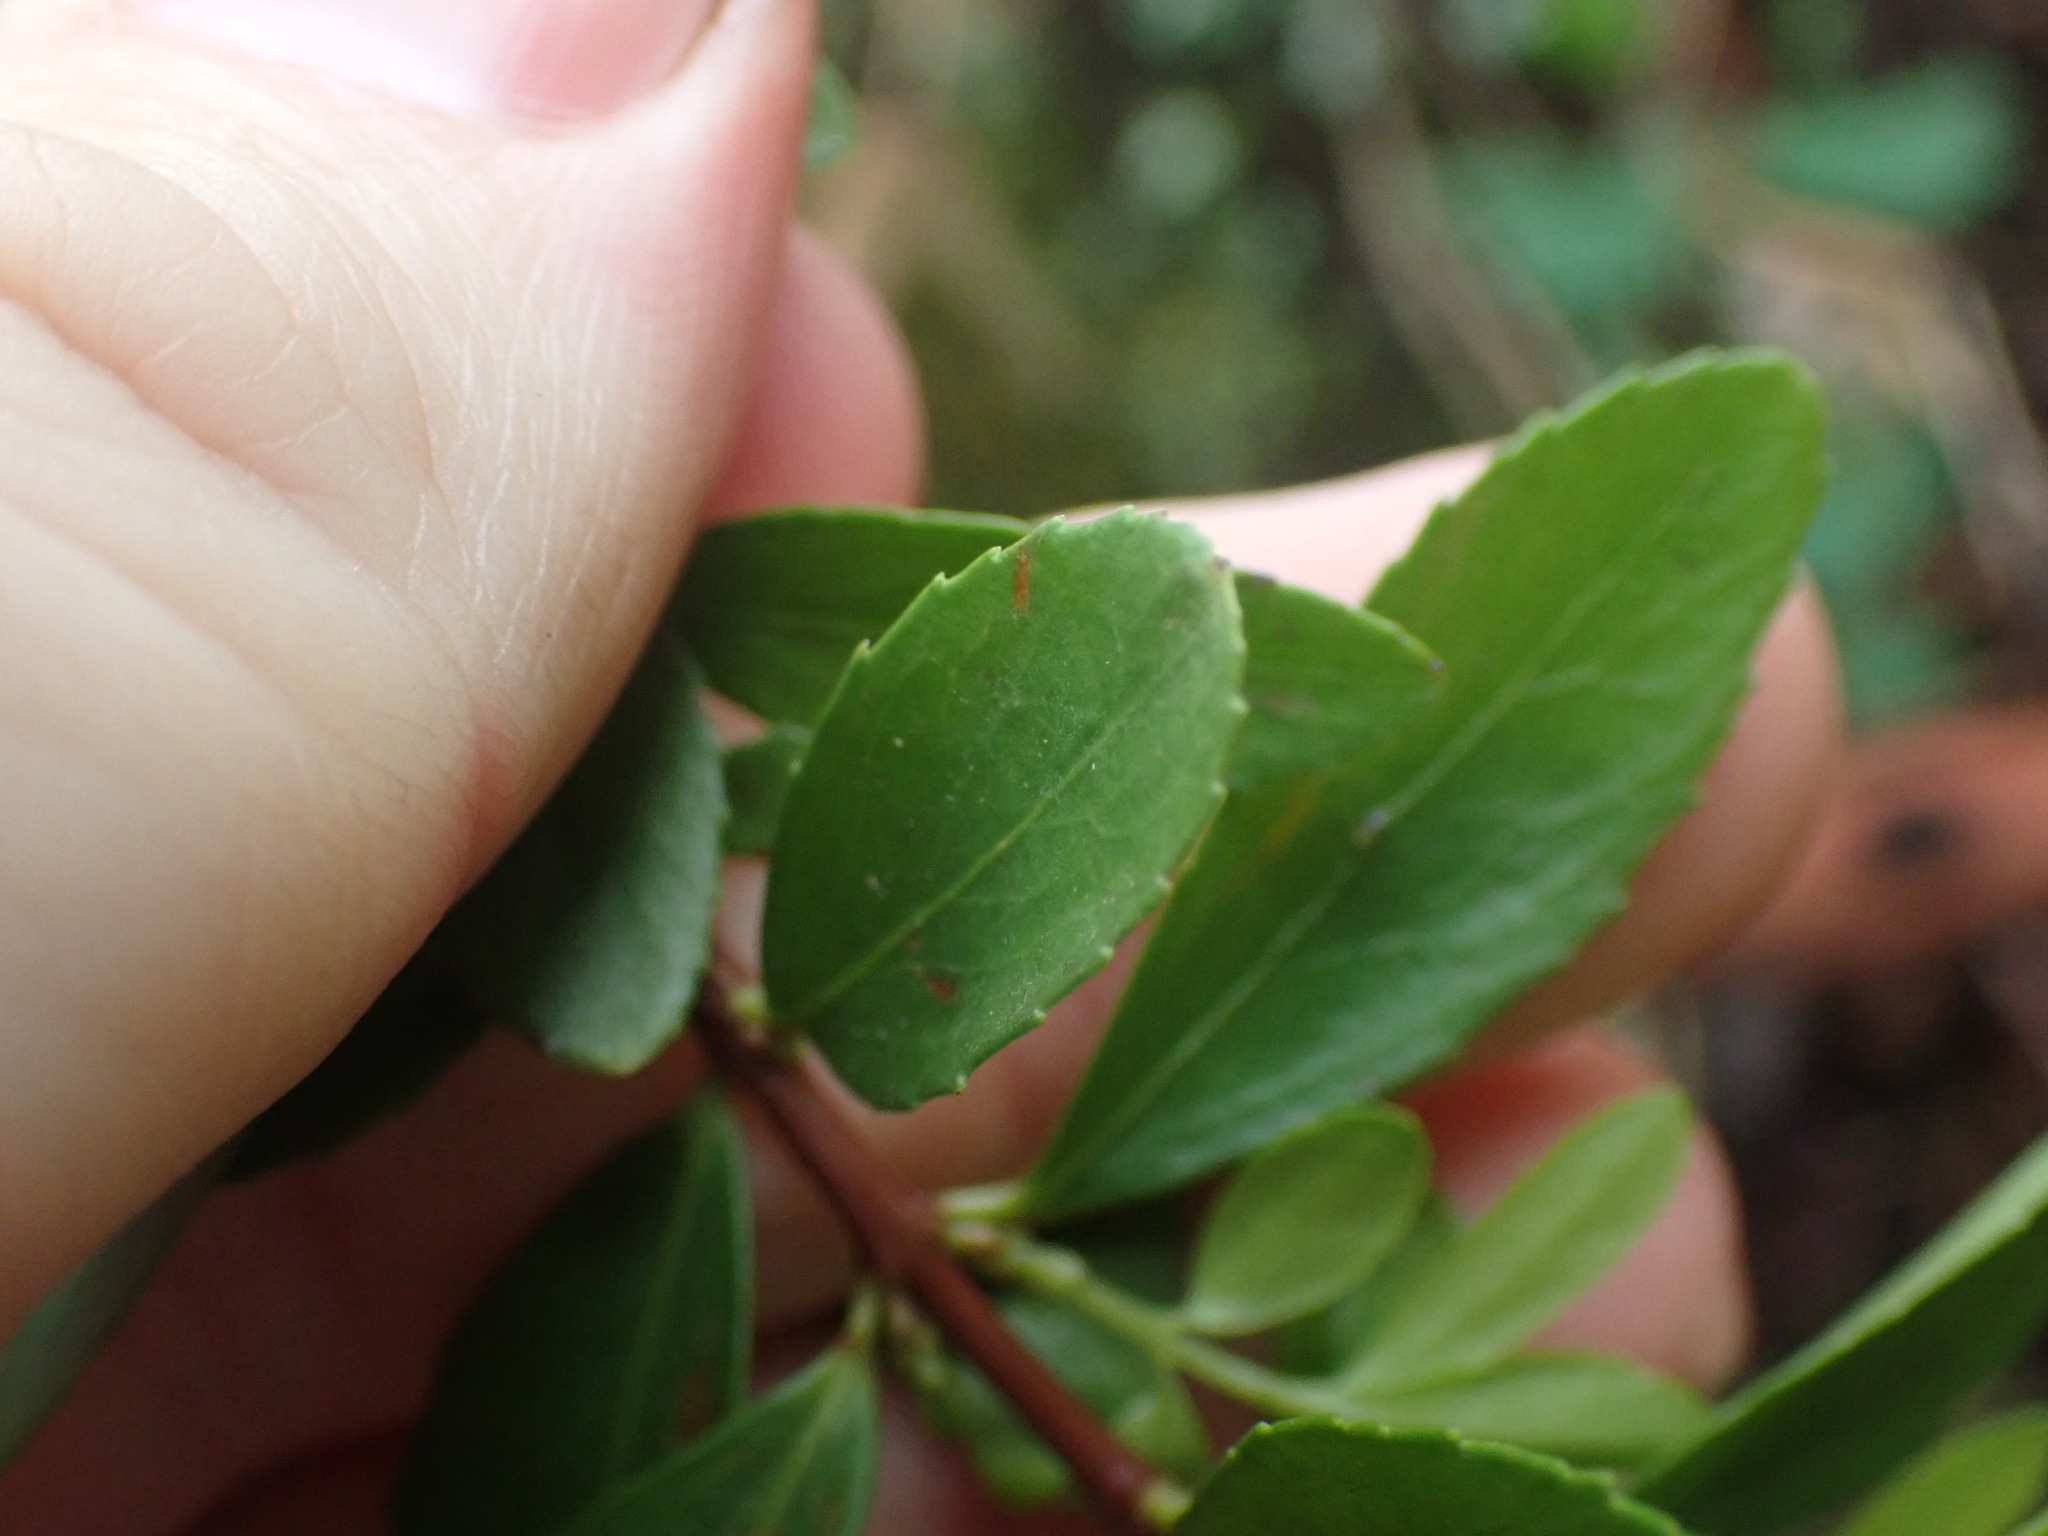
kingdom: Plantae
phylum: Tracheophyta
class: Magnoliopsida
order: Celastrales
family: Celastraceae
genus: Paxistima
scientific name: Paxistima myrsinites
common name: Mountain-lover
